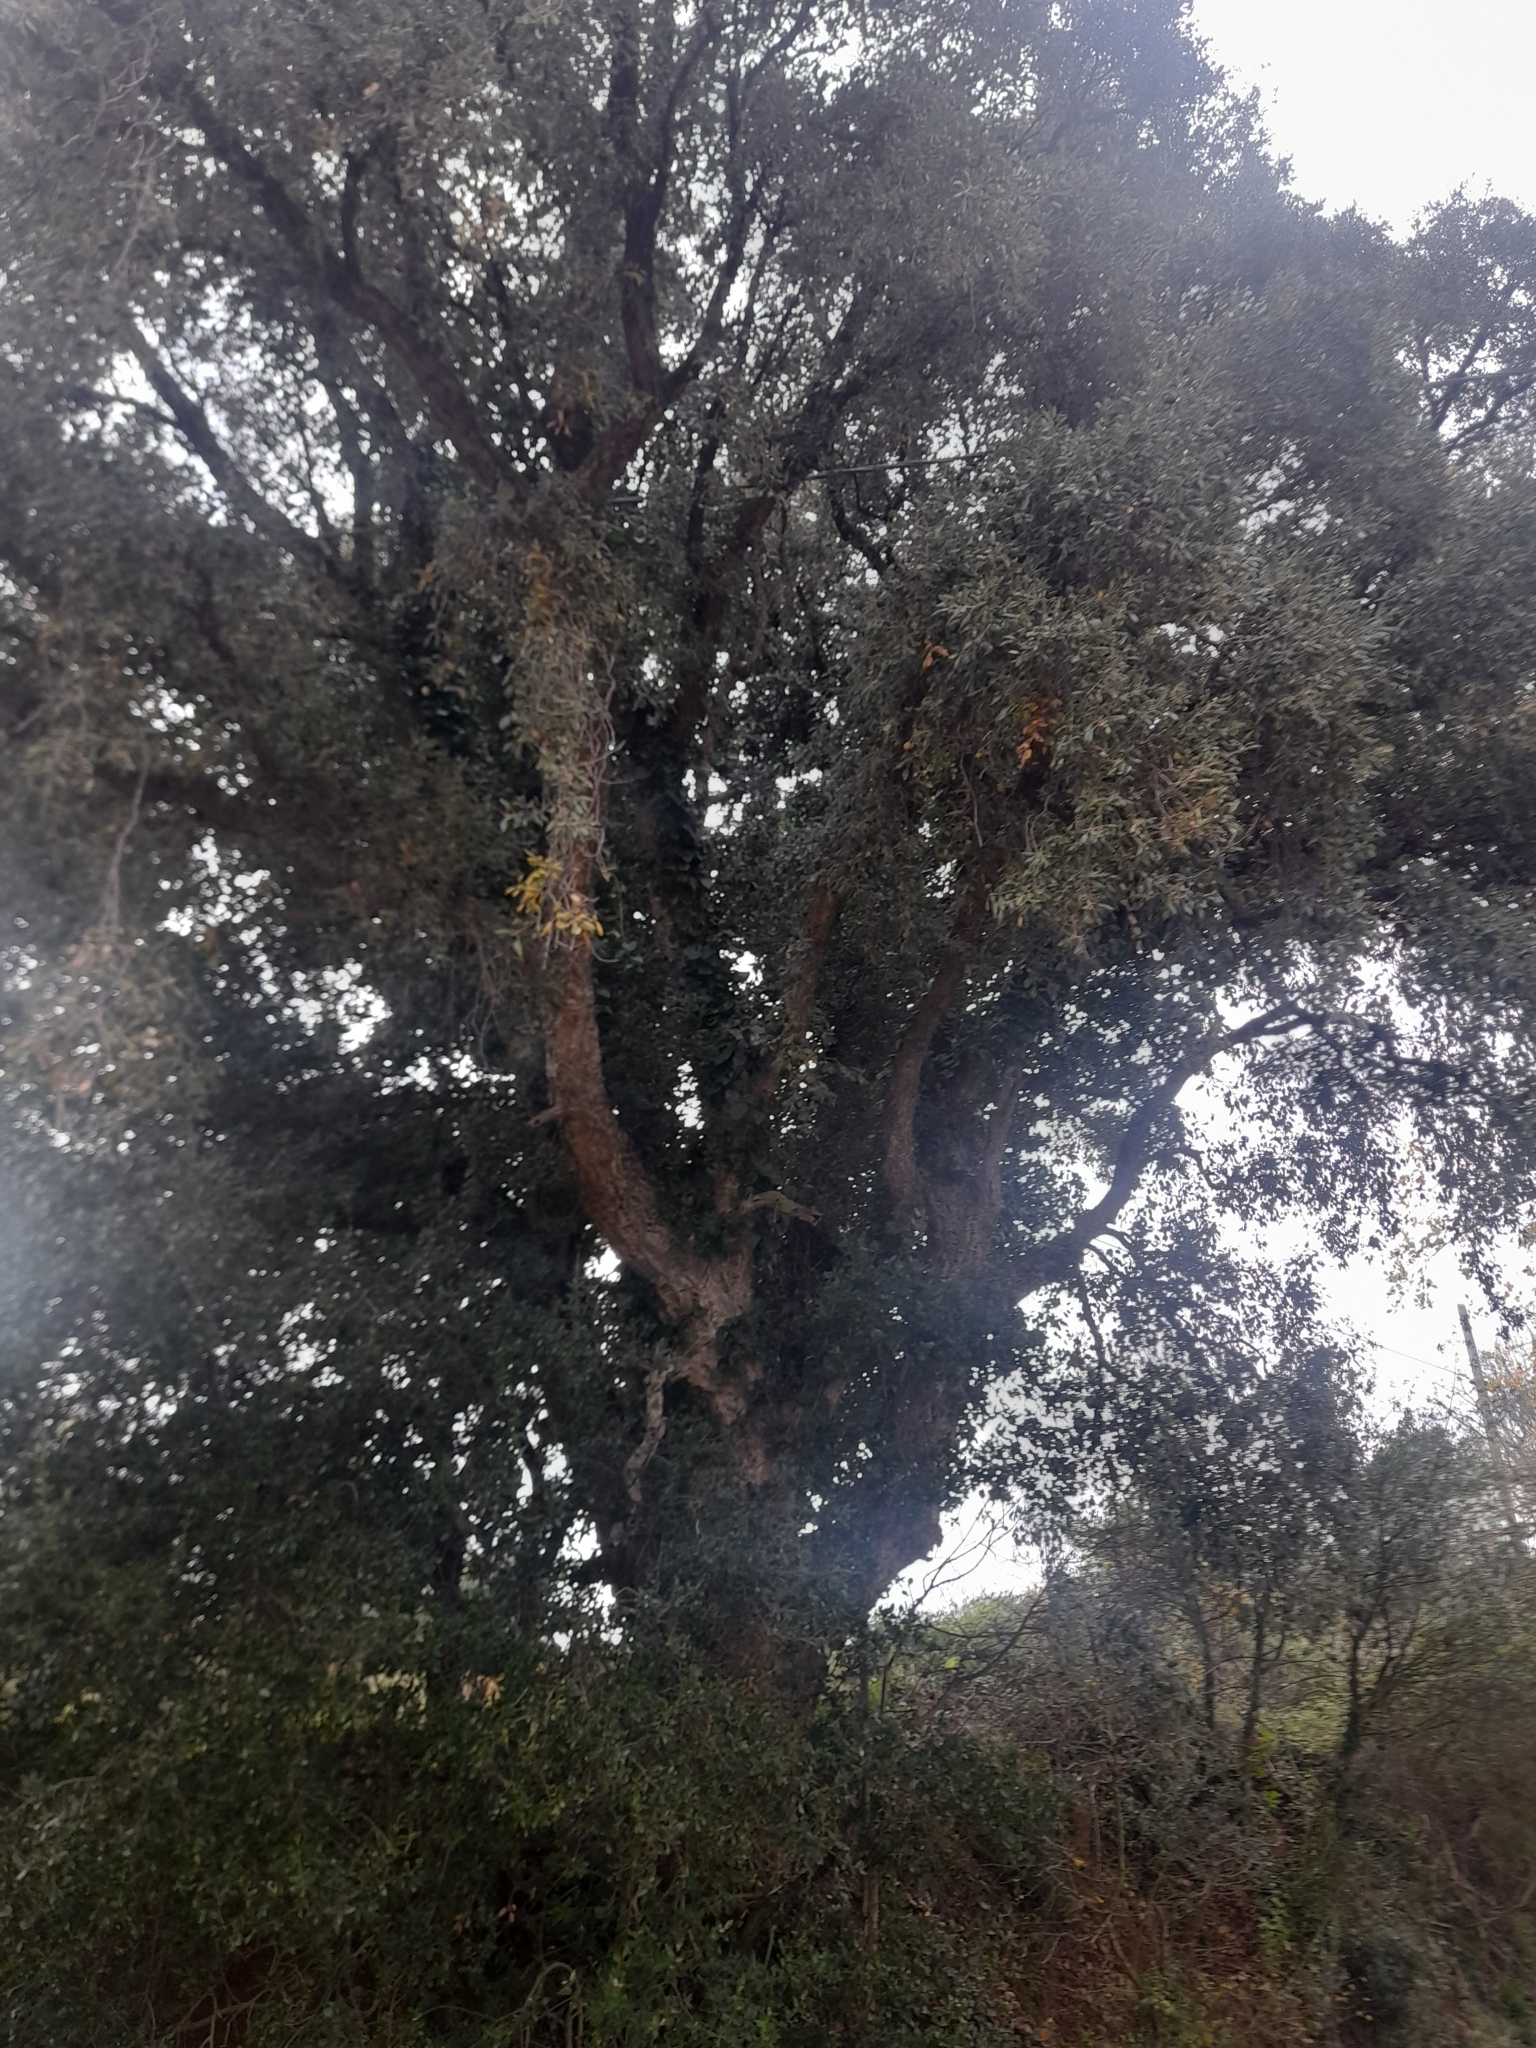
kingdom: Plantae
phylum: Tracheophyta
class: Magnoliopsida
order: Fagales
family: Fagaceae
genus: Quercus
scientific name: Quercus suber
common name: Cork oak
